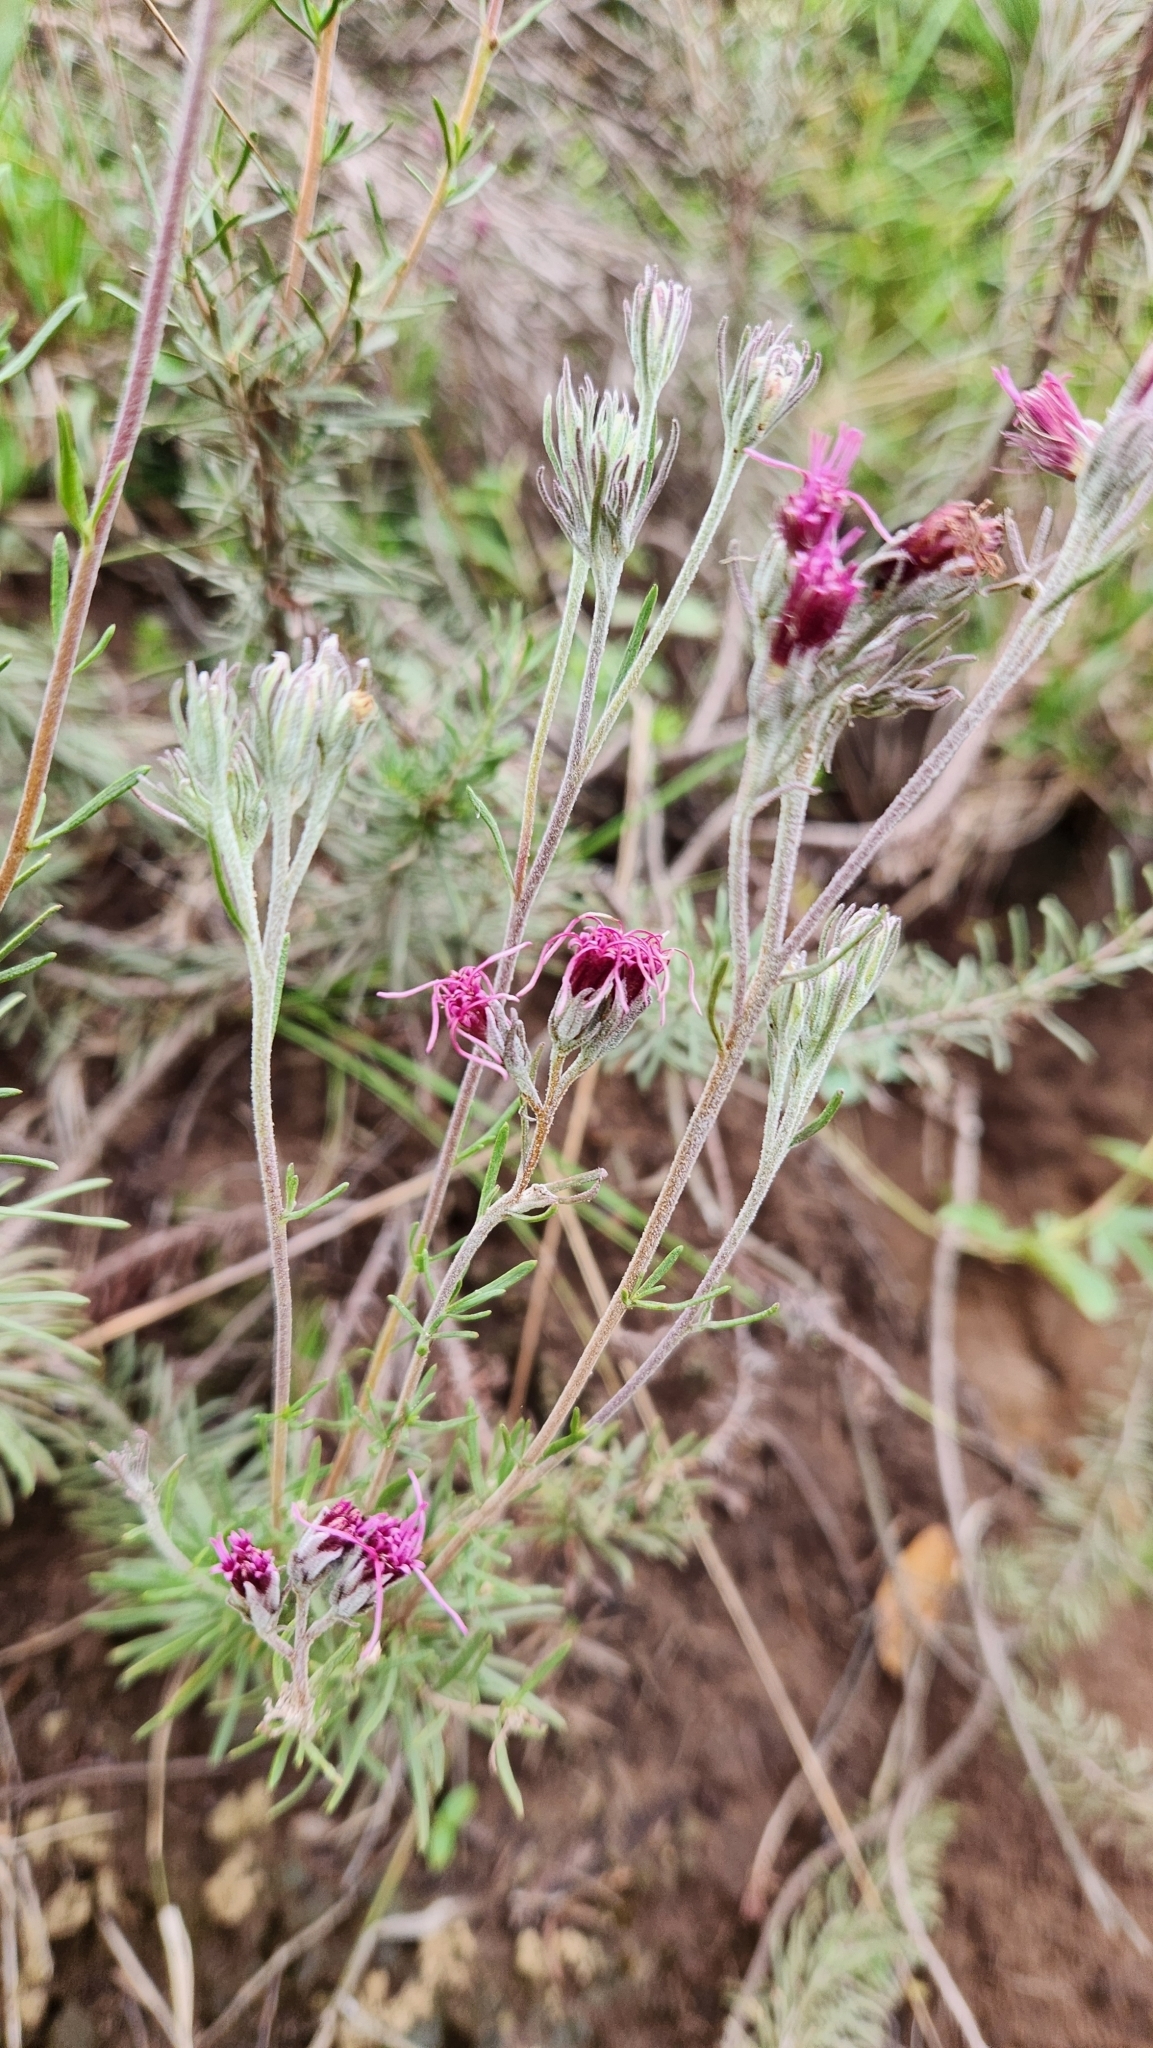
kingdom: Plantae
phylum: Tracheophyta
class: Magnoliopsida
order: Asterales
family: Asteraceae
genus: Disynaphia
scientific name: Disynaphia calyculata
